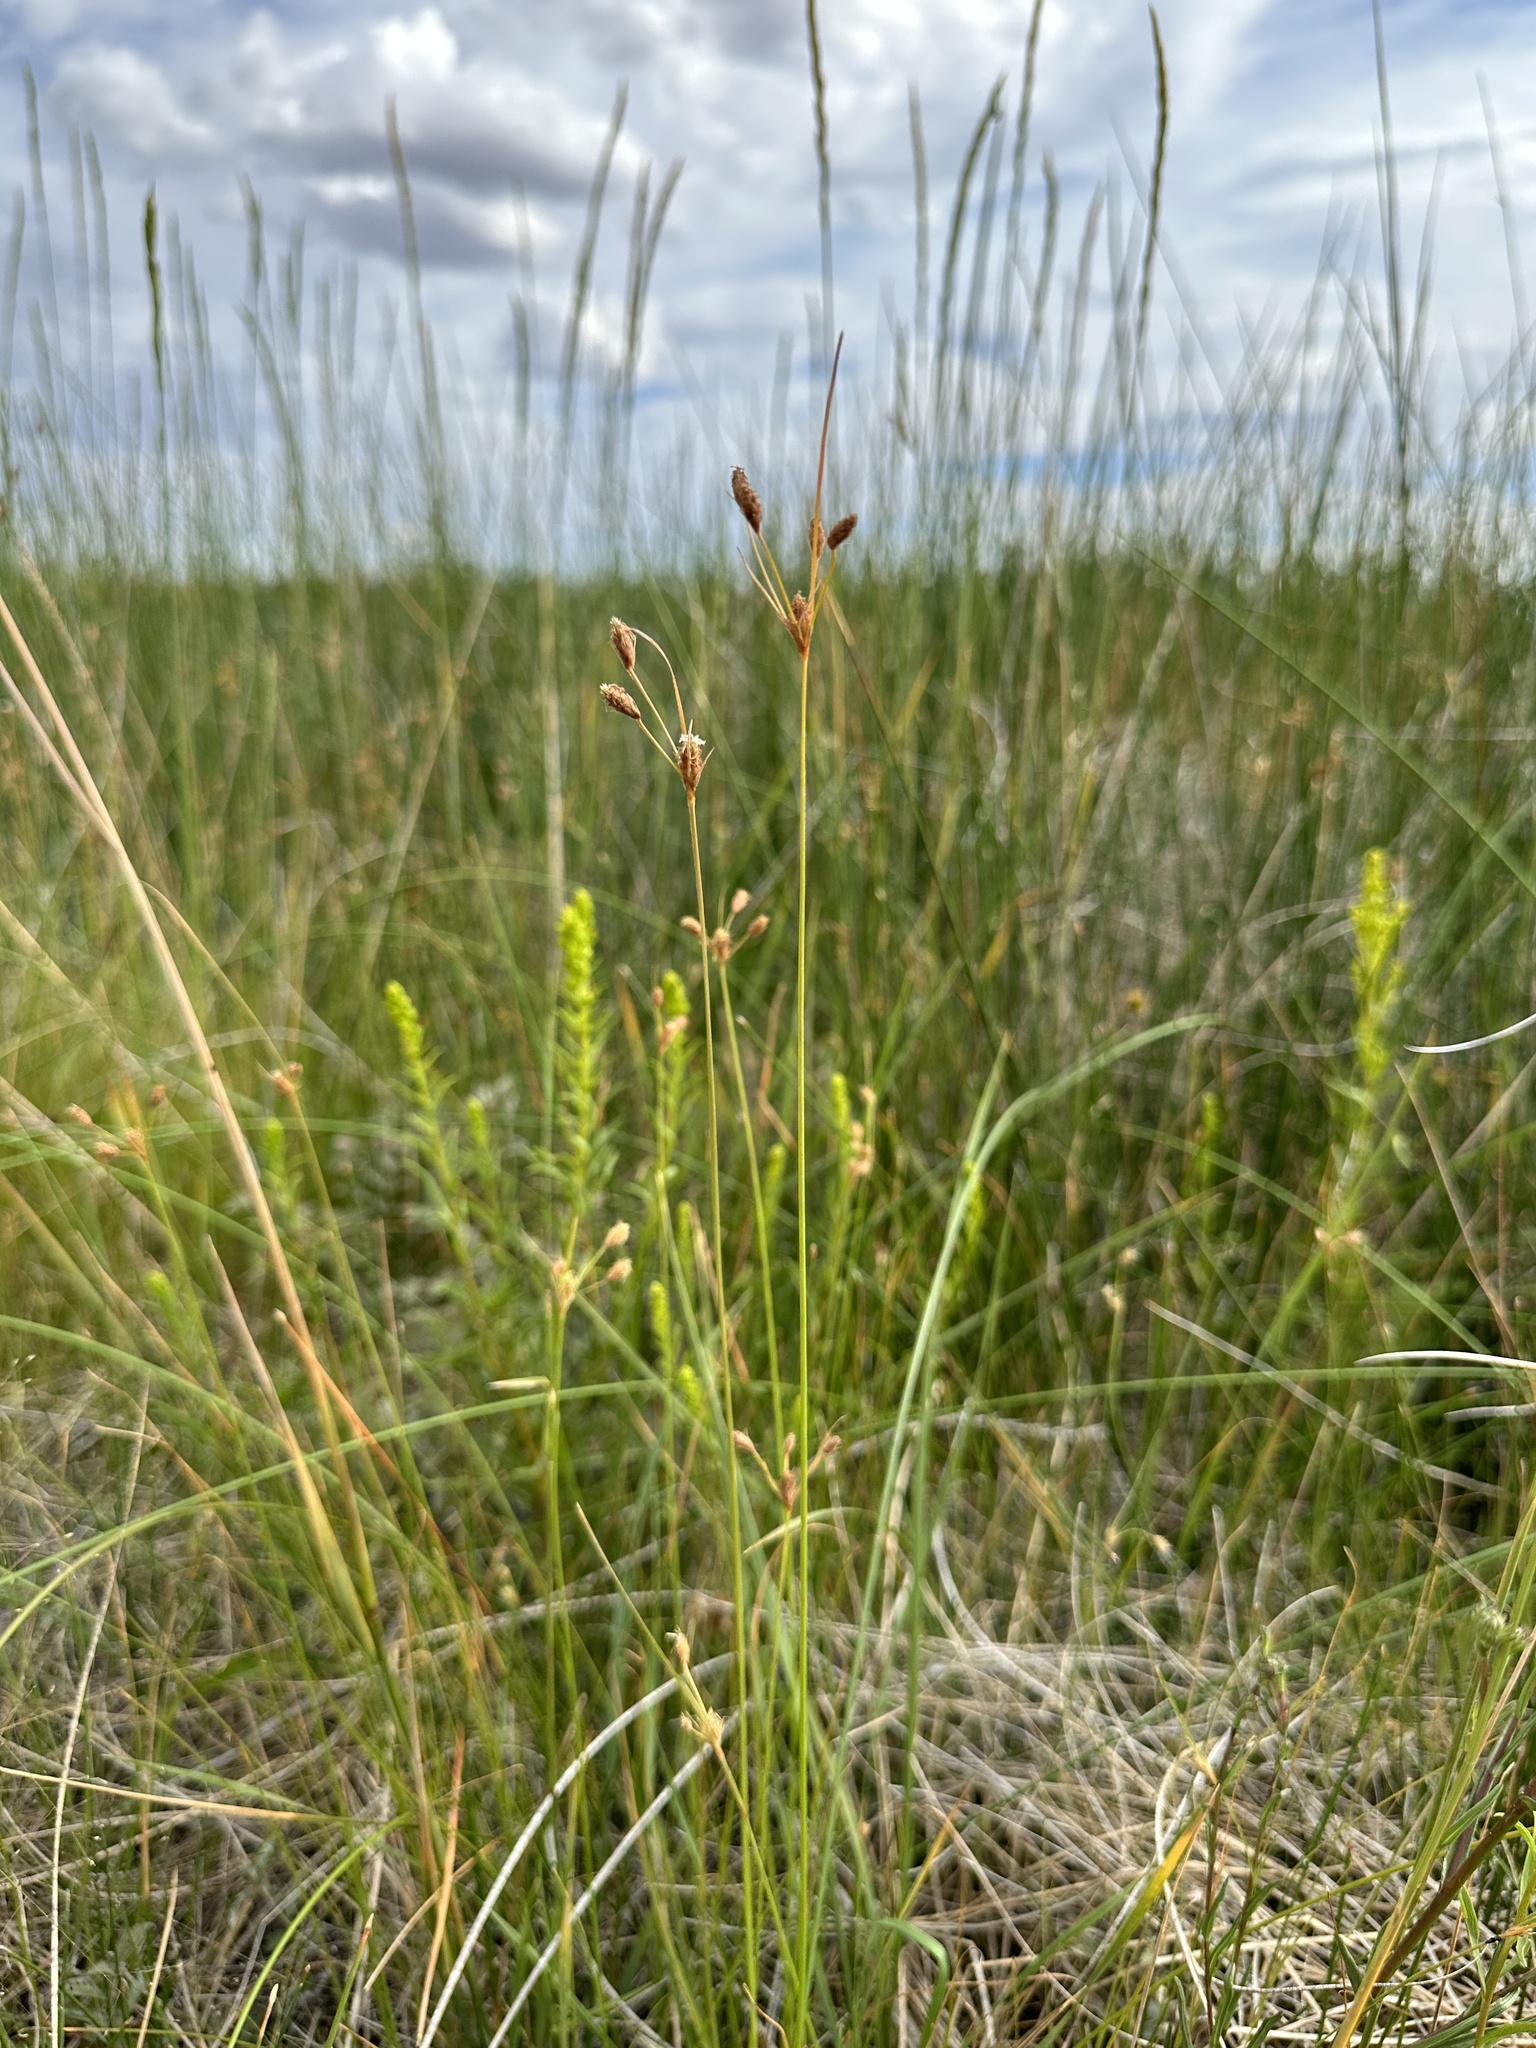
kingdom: Plantae
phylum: Tracheophyta
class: Liliopsida
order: Poales
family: Cyperaceae
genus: Fimbristylis
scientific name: Fimbristylis thermalis
